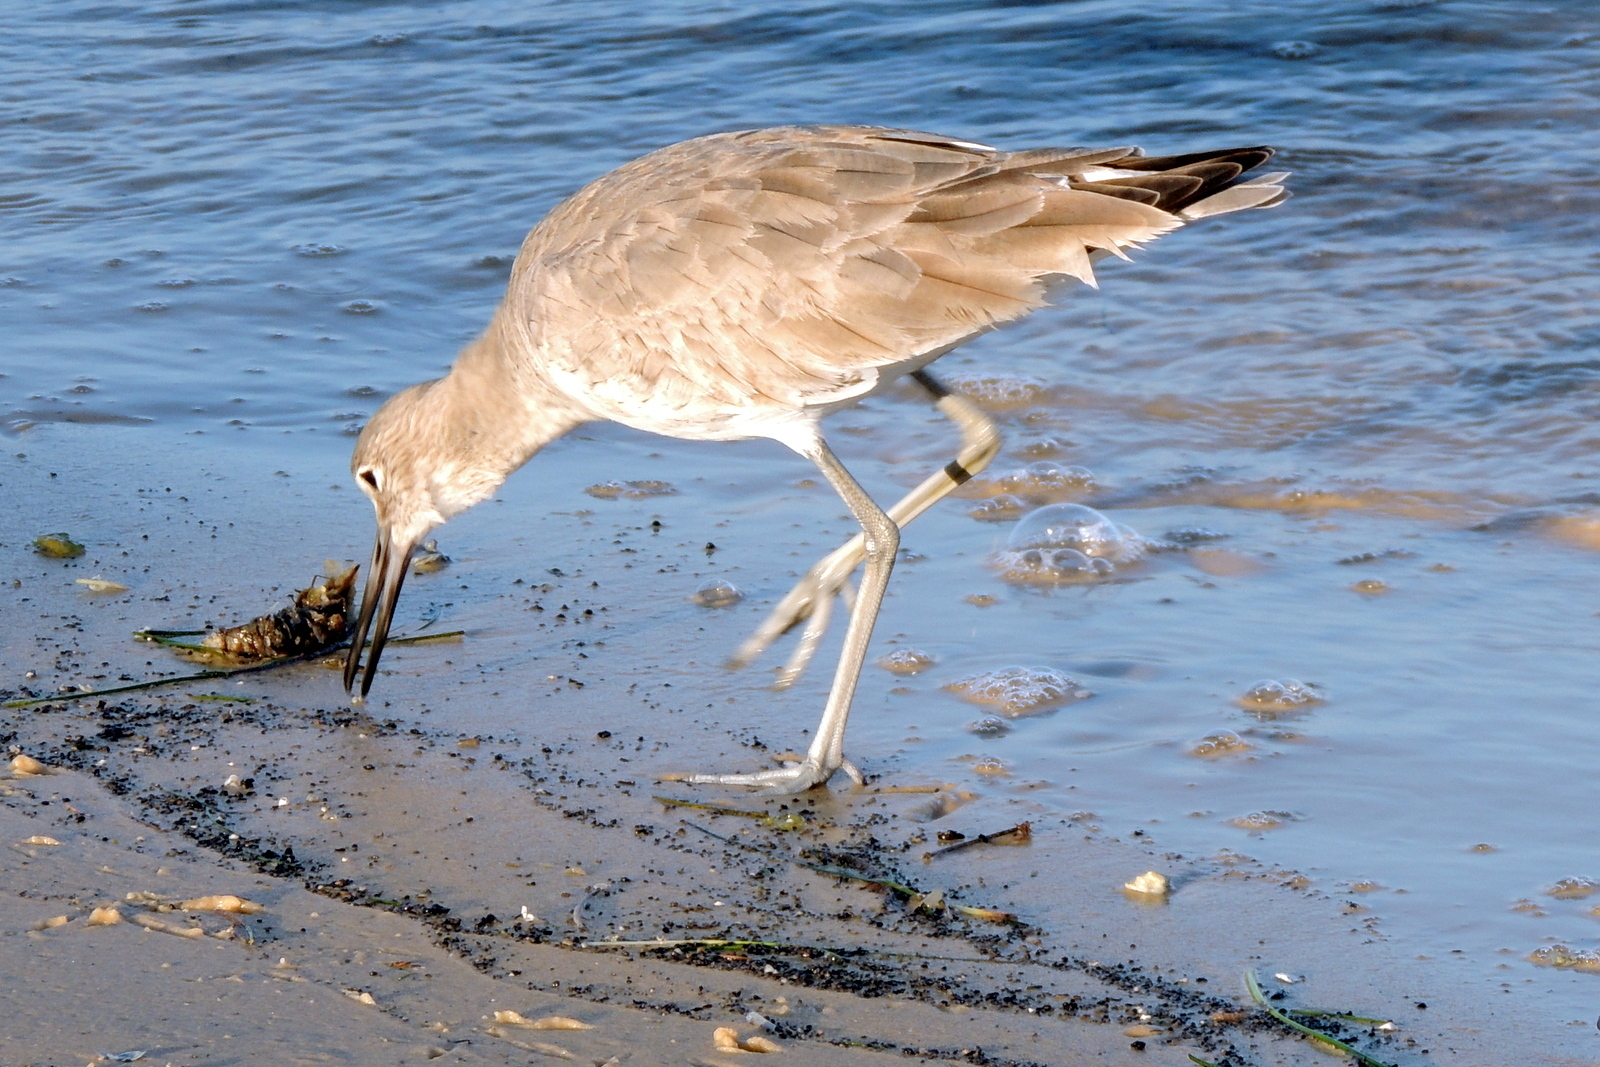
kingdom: Animalia
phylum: Chordata
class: Aves
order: Charadriiformes
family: Scolopacidae
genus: Tringa
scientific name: Tringa semipalmata
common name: Willet
